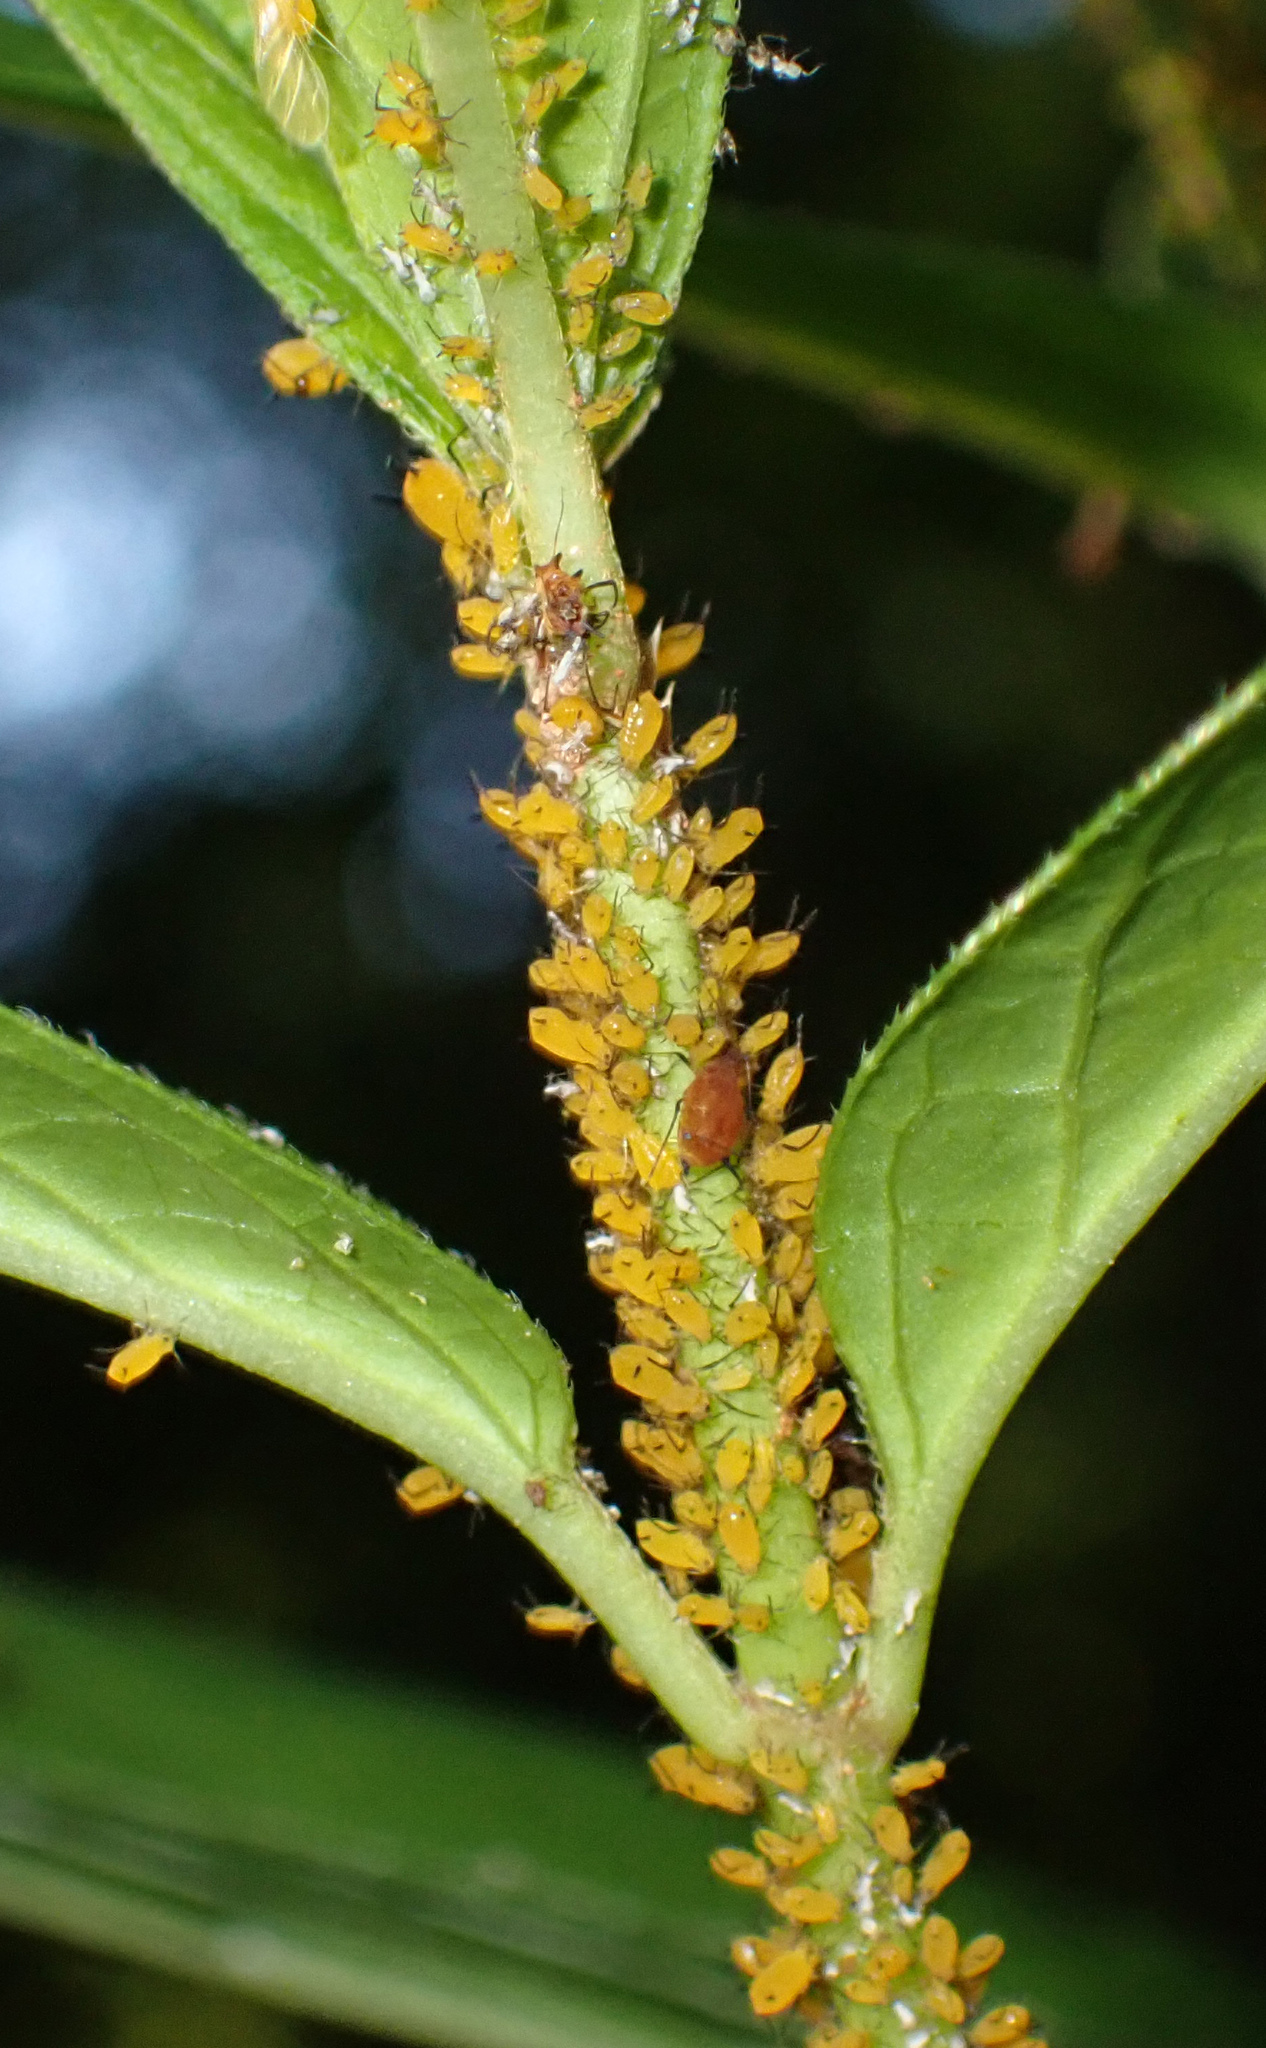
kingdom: Animalia
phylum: Arthropoda
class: Insecta
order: Hemiptera
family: Aphididae
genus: Aphis
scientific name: Aphis nerii
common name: Oleander aphid
